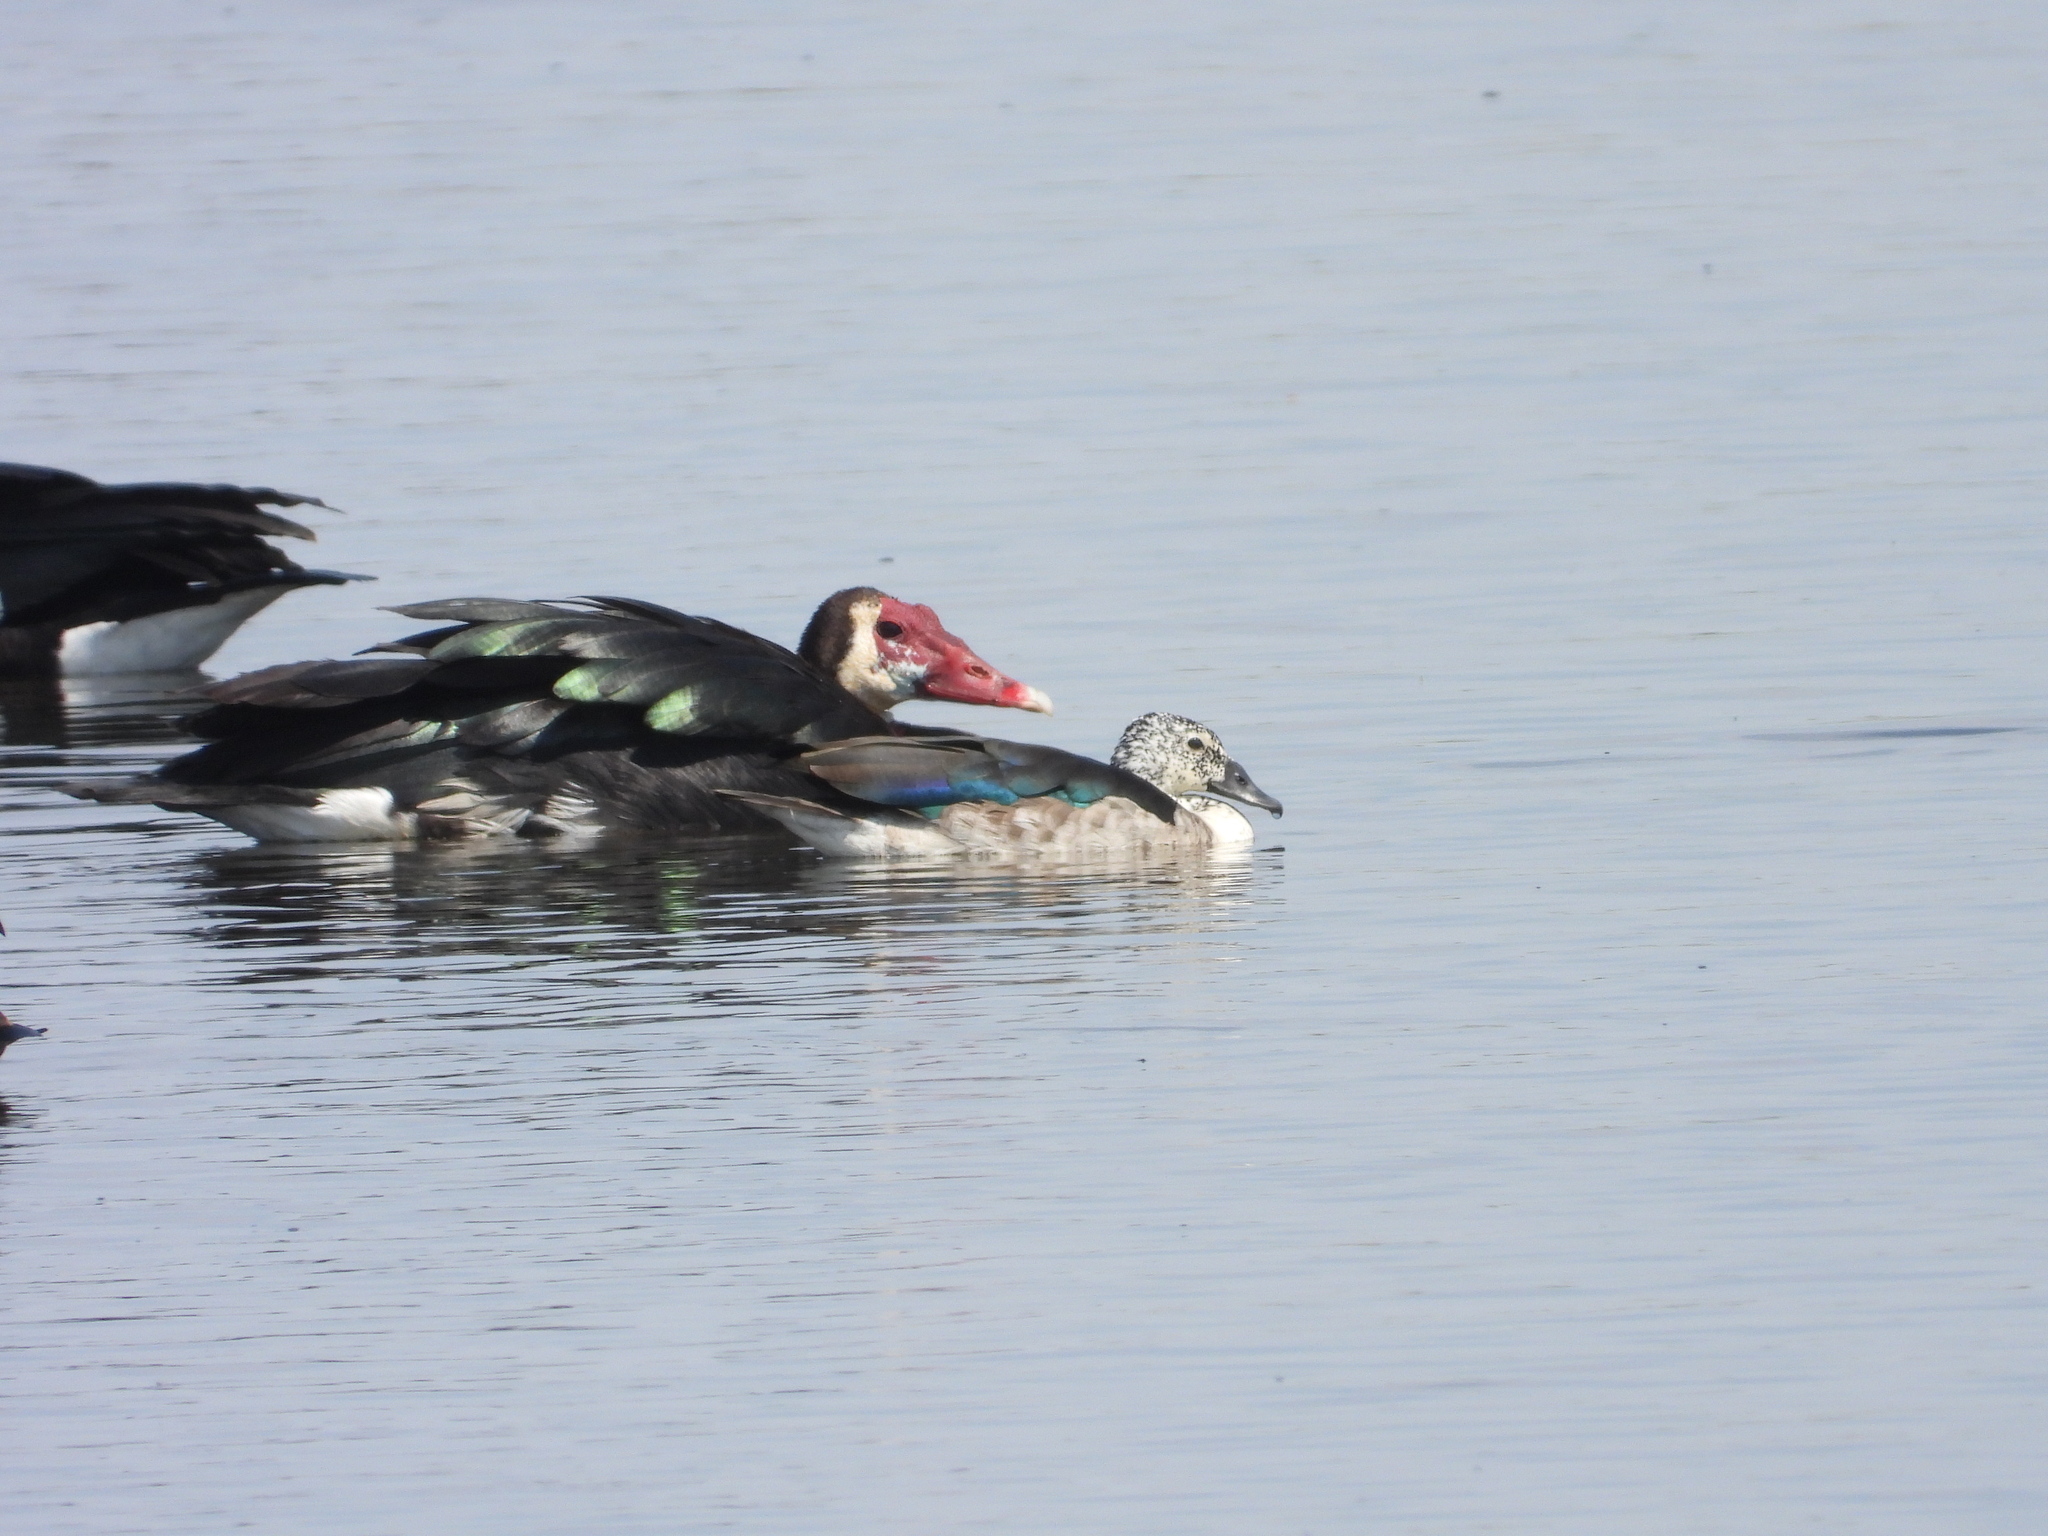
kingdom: Animalia
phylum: Chordata
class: Aves
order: Anseriformes
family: Anatidae
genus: Sarkidiornis
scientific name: Sarkidiornis melanotos
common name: Comb duck
